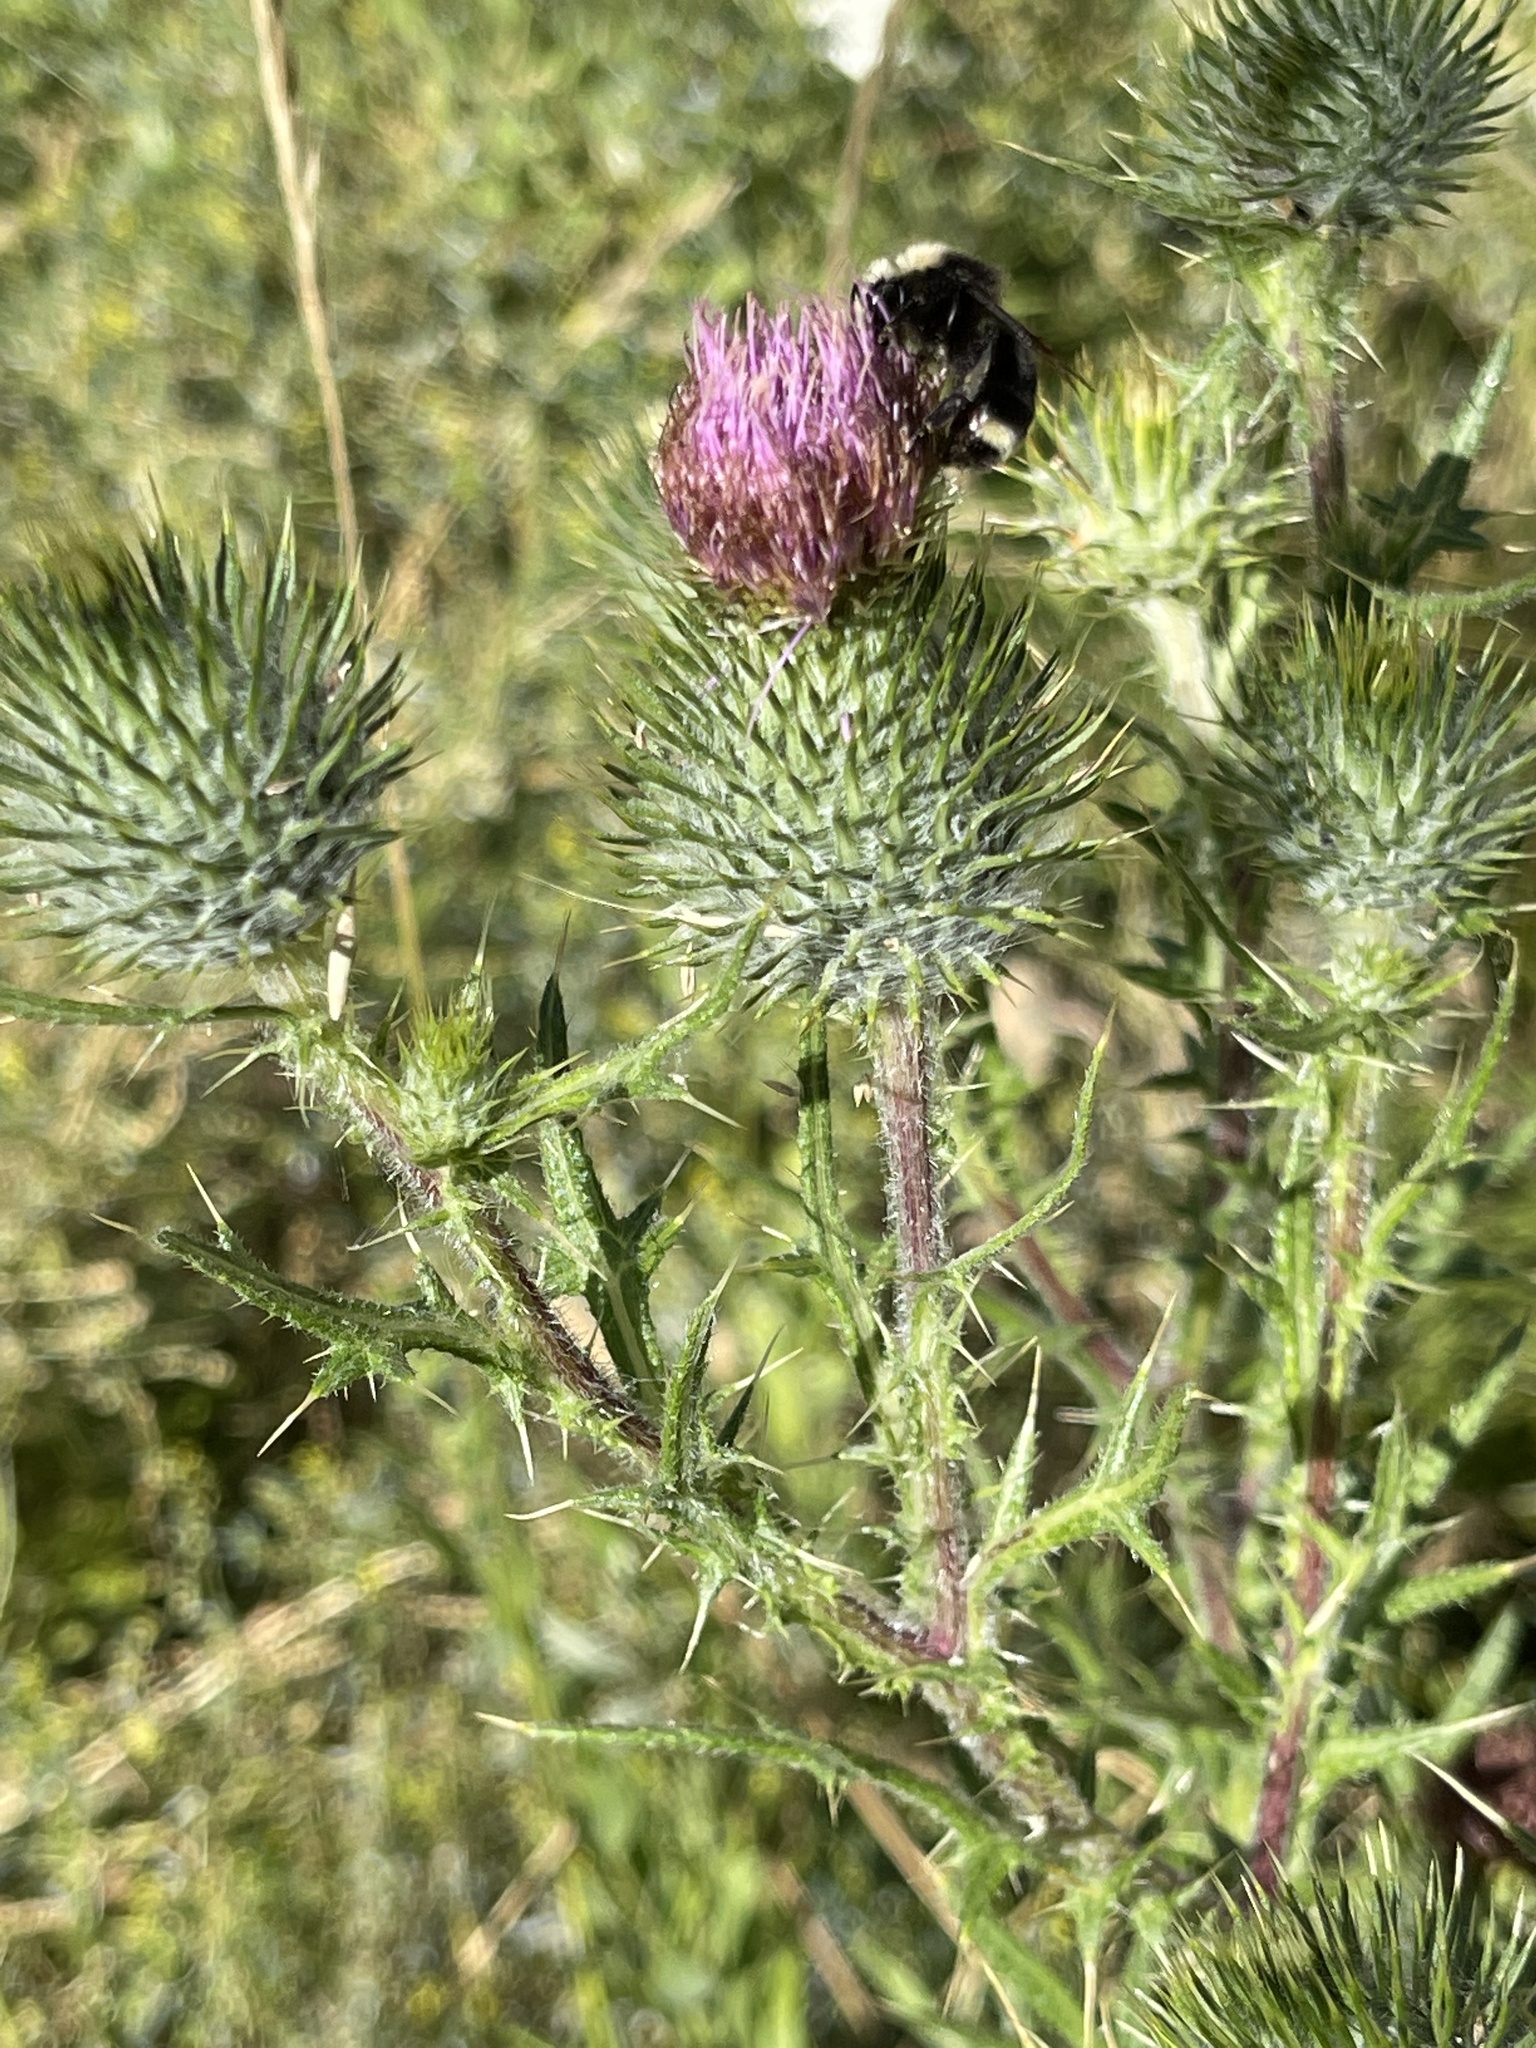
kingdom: Plantae
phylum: Tracheophyta
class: Magnoliopsida
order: Asterales
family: Asteraceae
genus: Cirsium
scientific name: Cirsium vulgare
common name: Bull thistle
